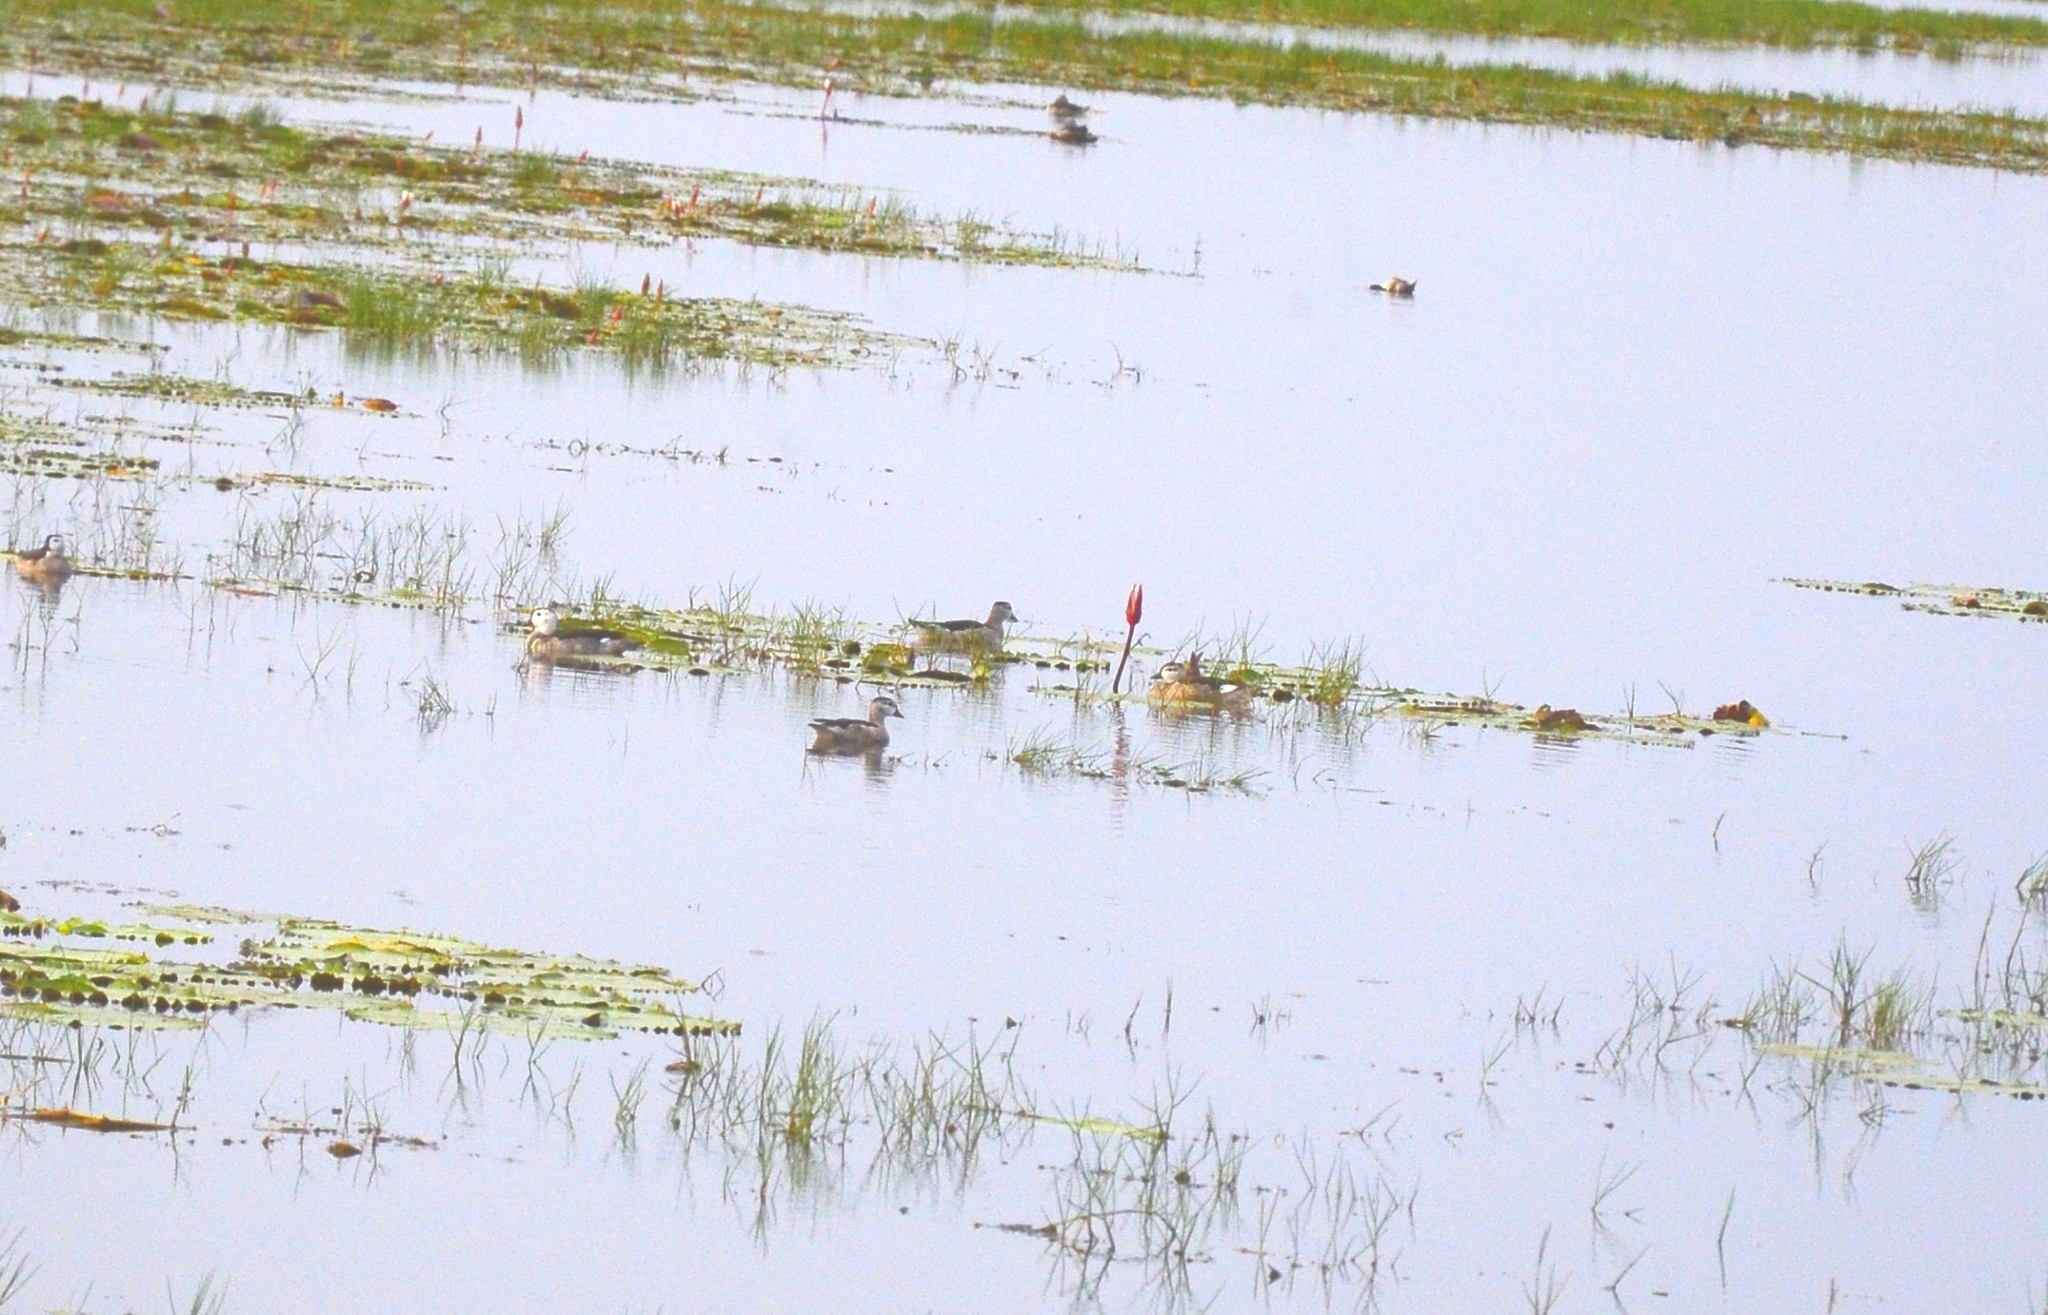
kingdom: Animalia
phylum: Chordata
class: Aves
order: Anseriformes
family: Anatidae
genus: Nettapus
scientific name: Nettapus coromandelianus
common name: Cotton pygmy-goose
